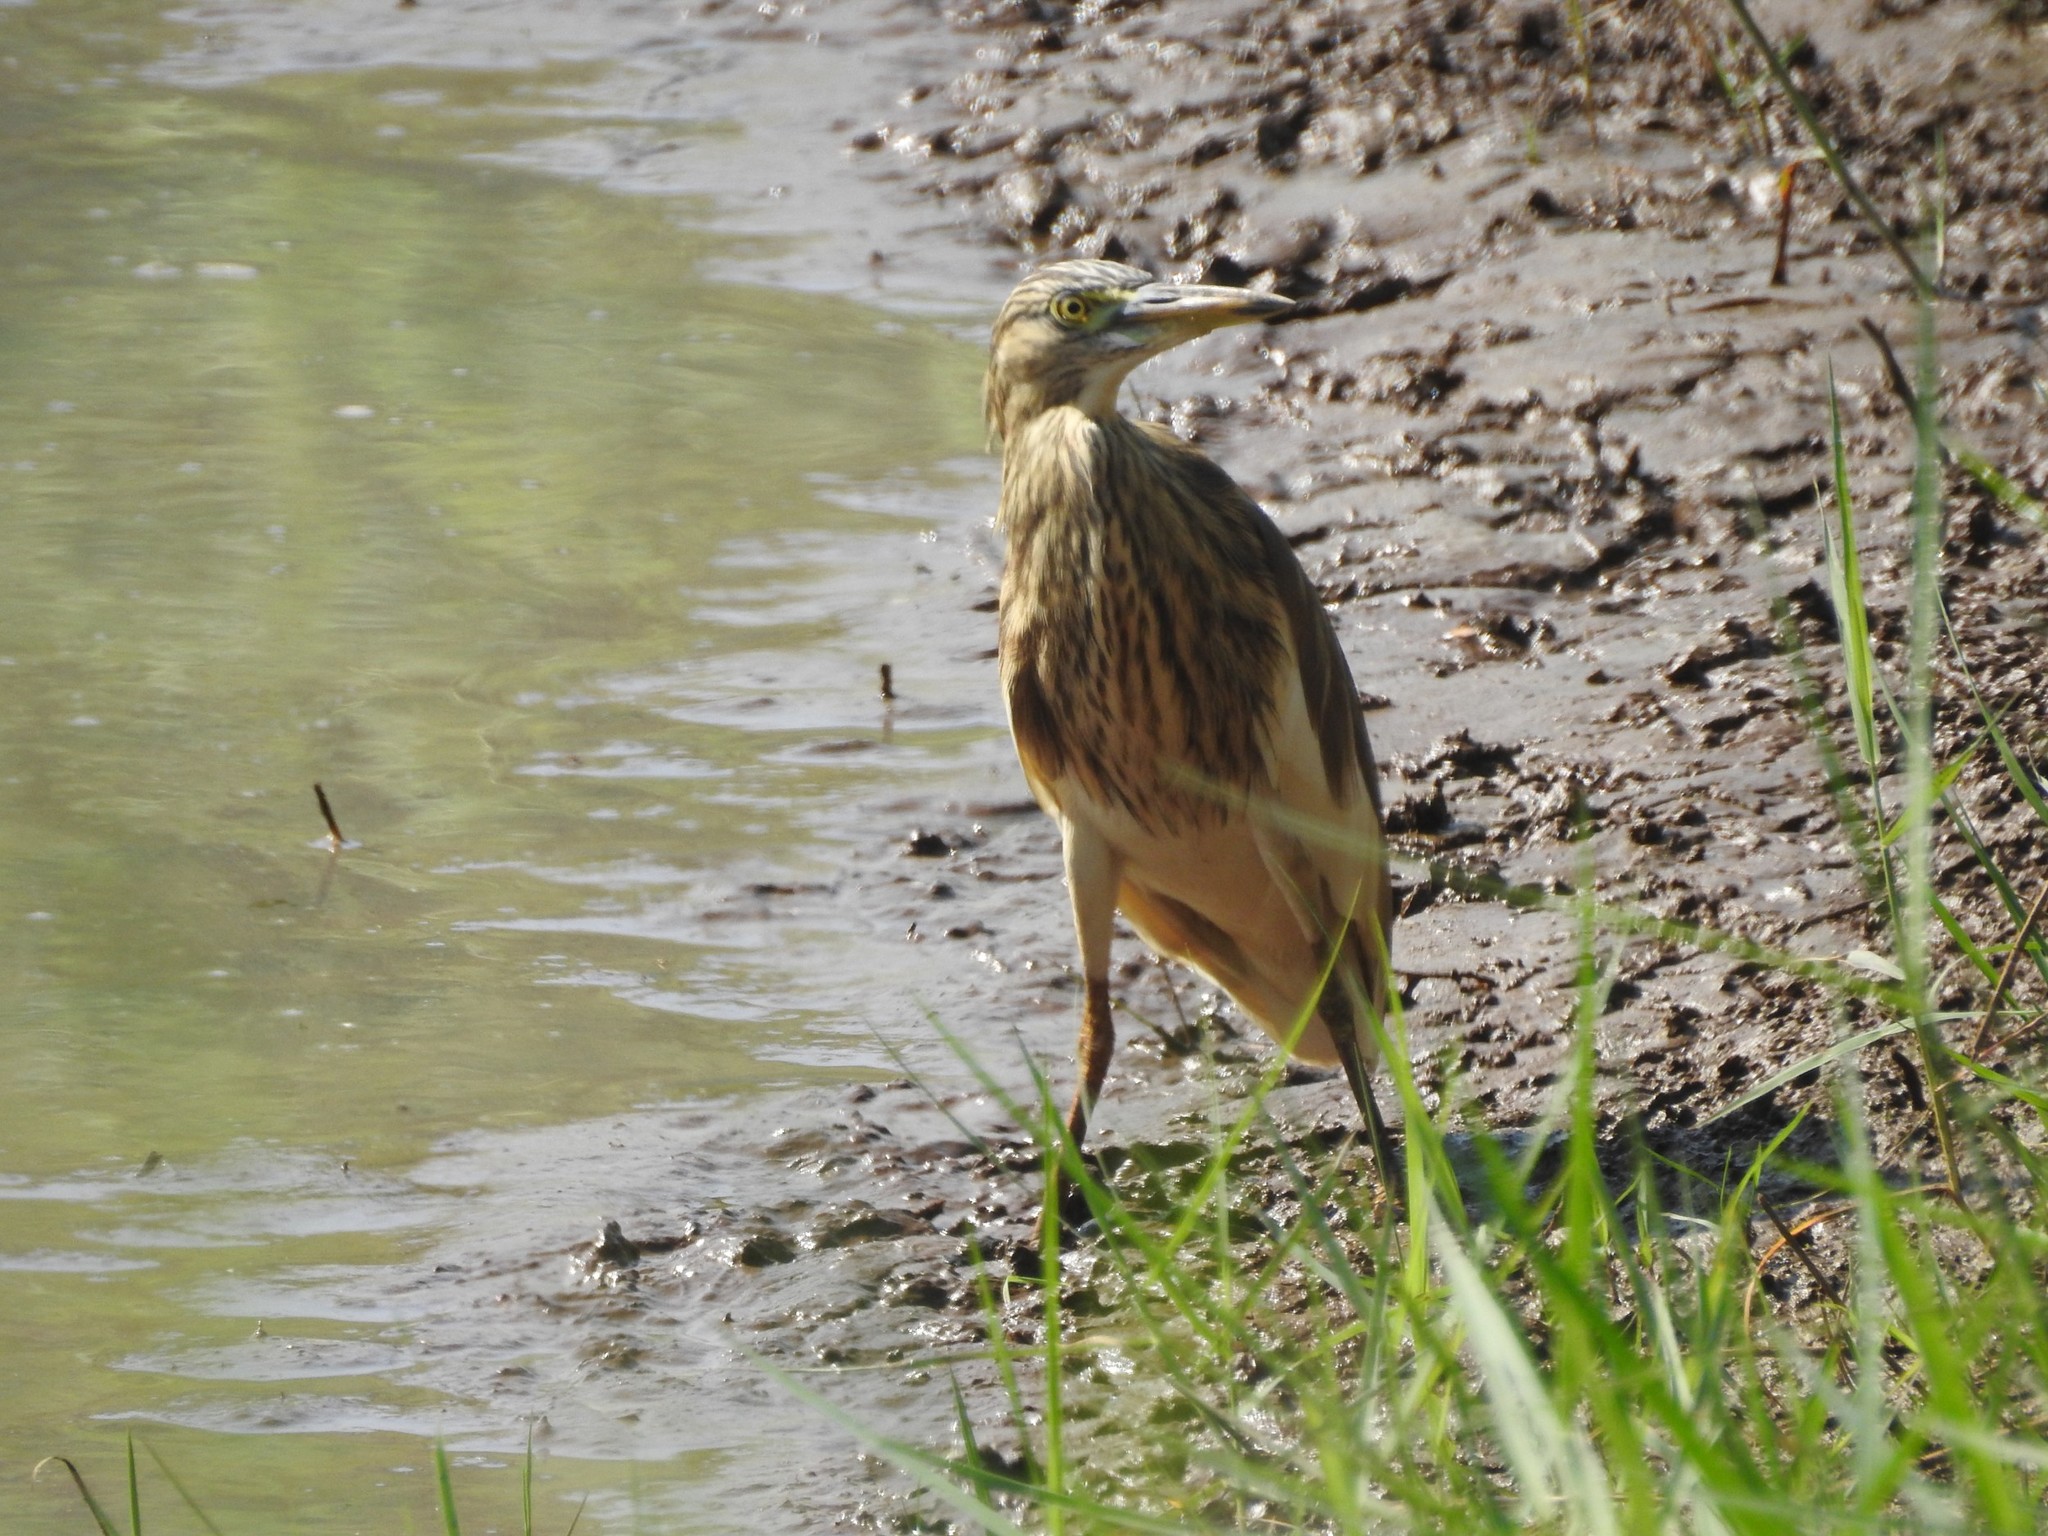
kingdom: Animalia
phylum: Chordata
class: Aves
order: Pelecaniformes
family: Ardeidae
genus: Ardeola
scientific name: Ardeola grayii
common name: Indian pond heron
